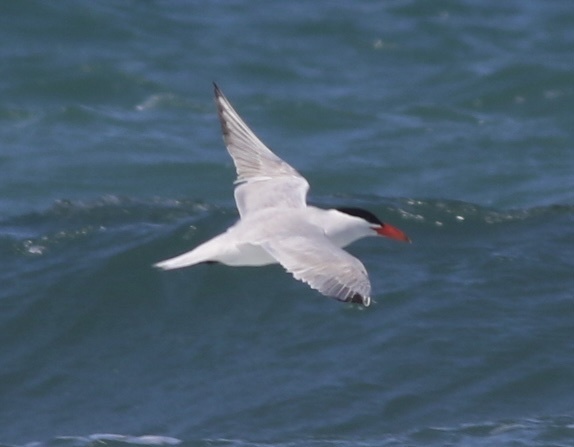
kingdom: Animalia
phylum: Chordata
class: Aves
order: Charadriiformes
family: Laridae
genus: Hydroprogne
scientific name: Hydroprogne caspia
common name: Caspian tern
